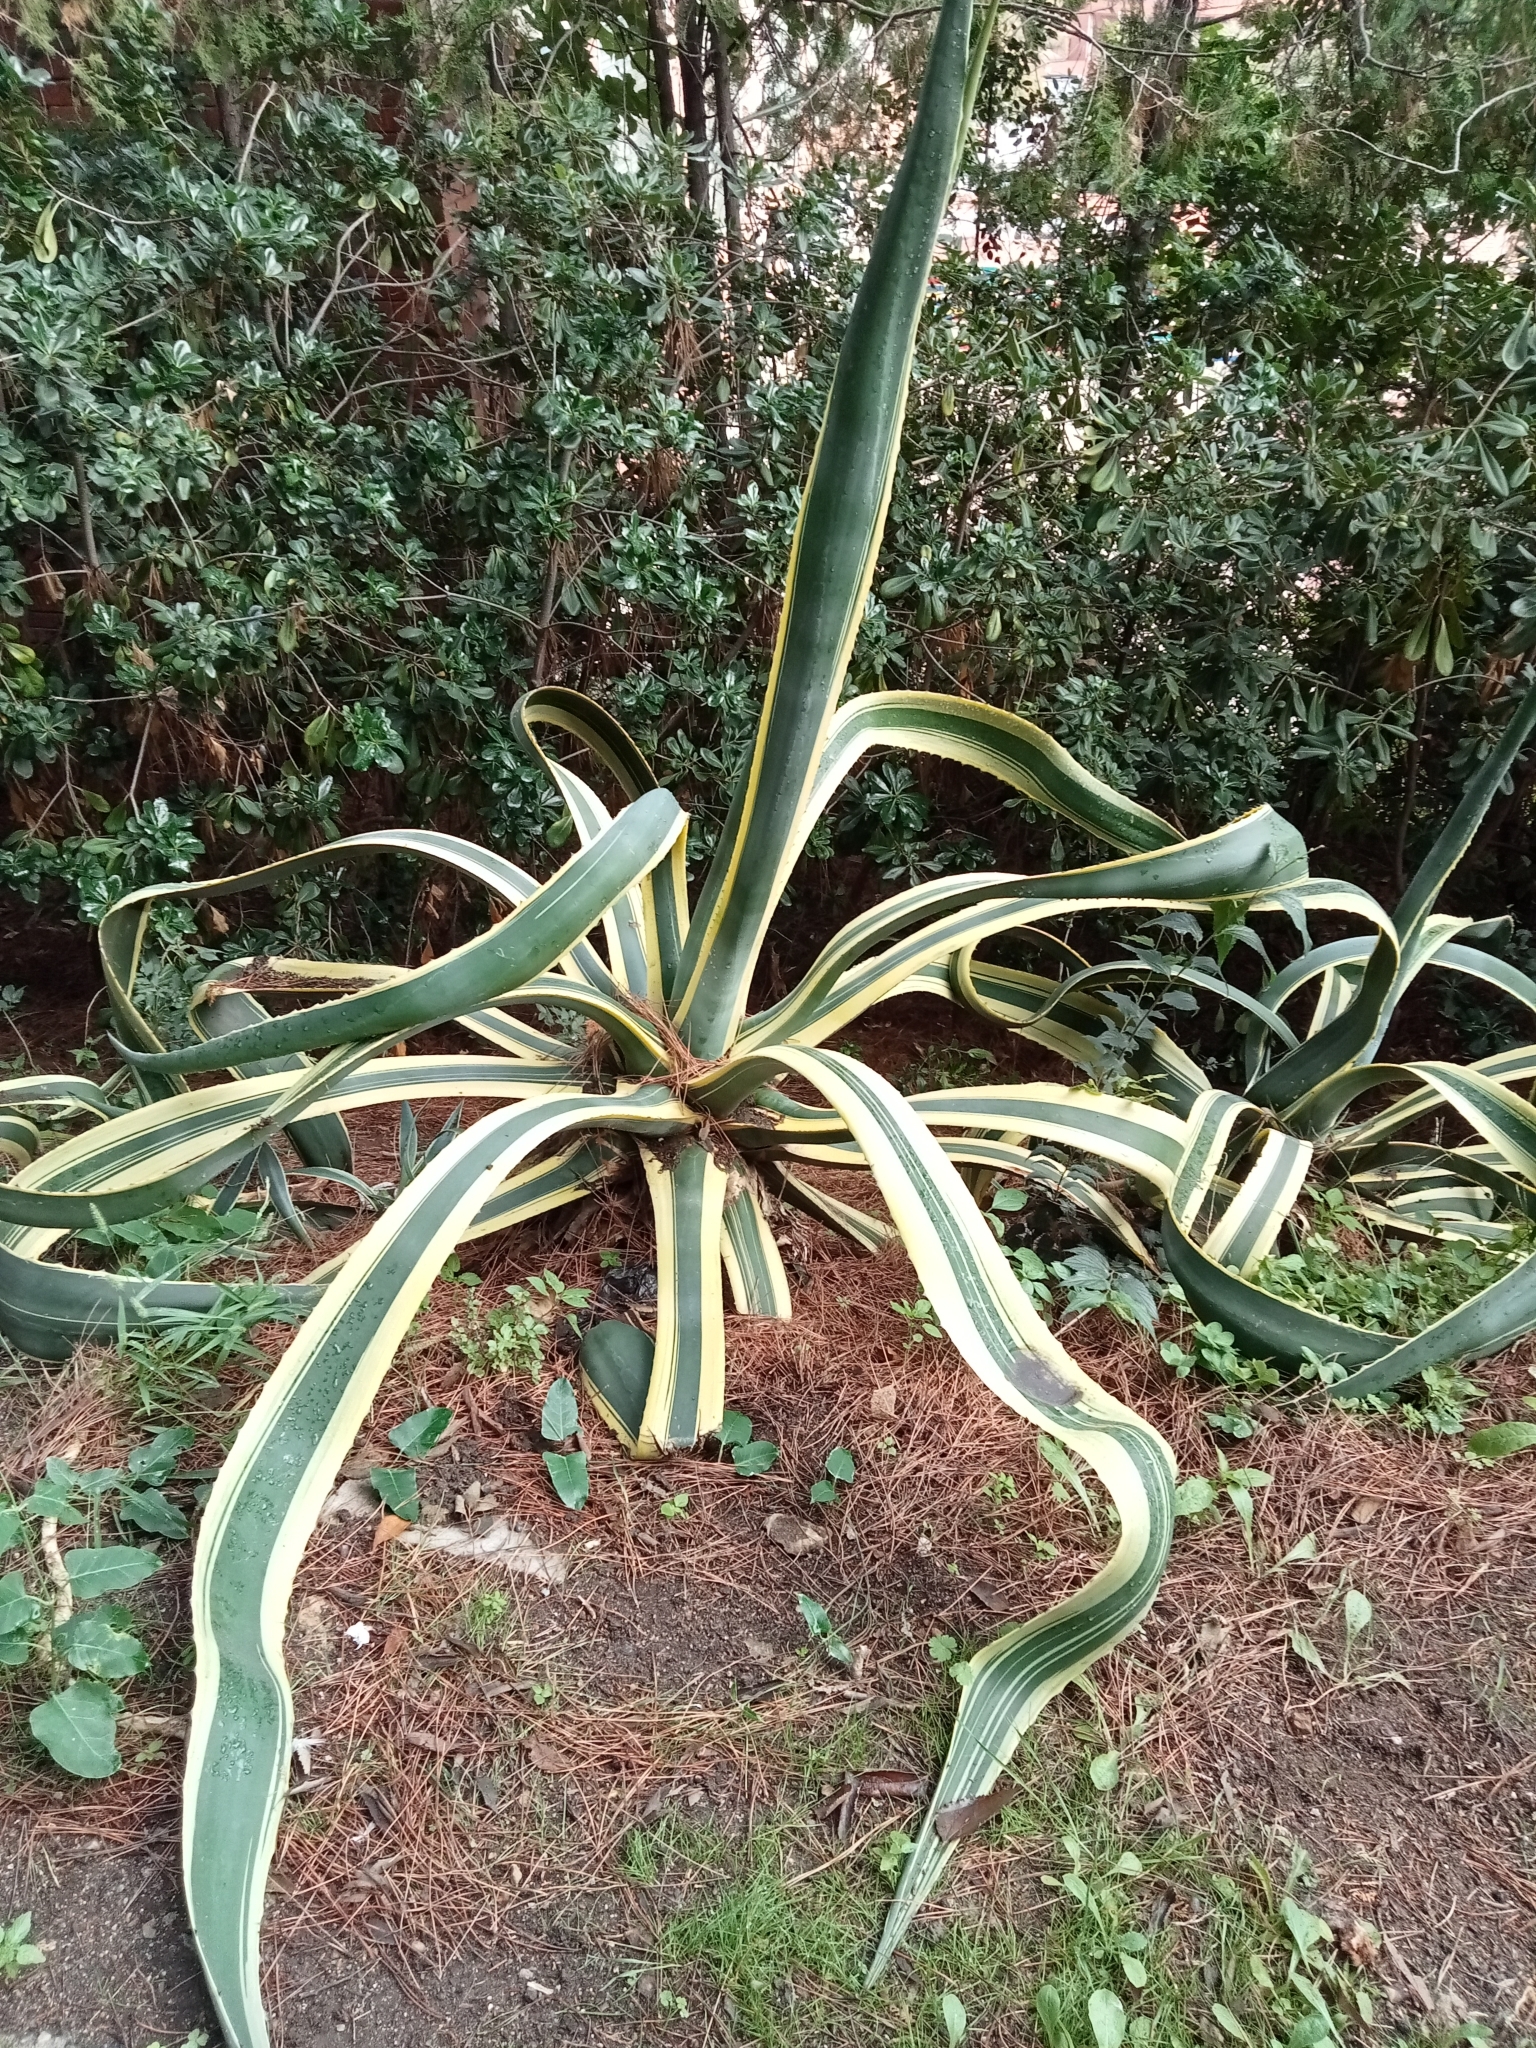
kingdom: Plantae
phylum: Tracheophyta
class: Liliopsida
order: Asparagales
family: Asparagaceae
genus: Agave
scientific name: Agave americana
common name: Centuryplant
